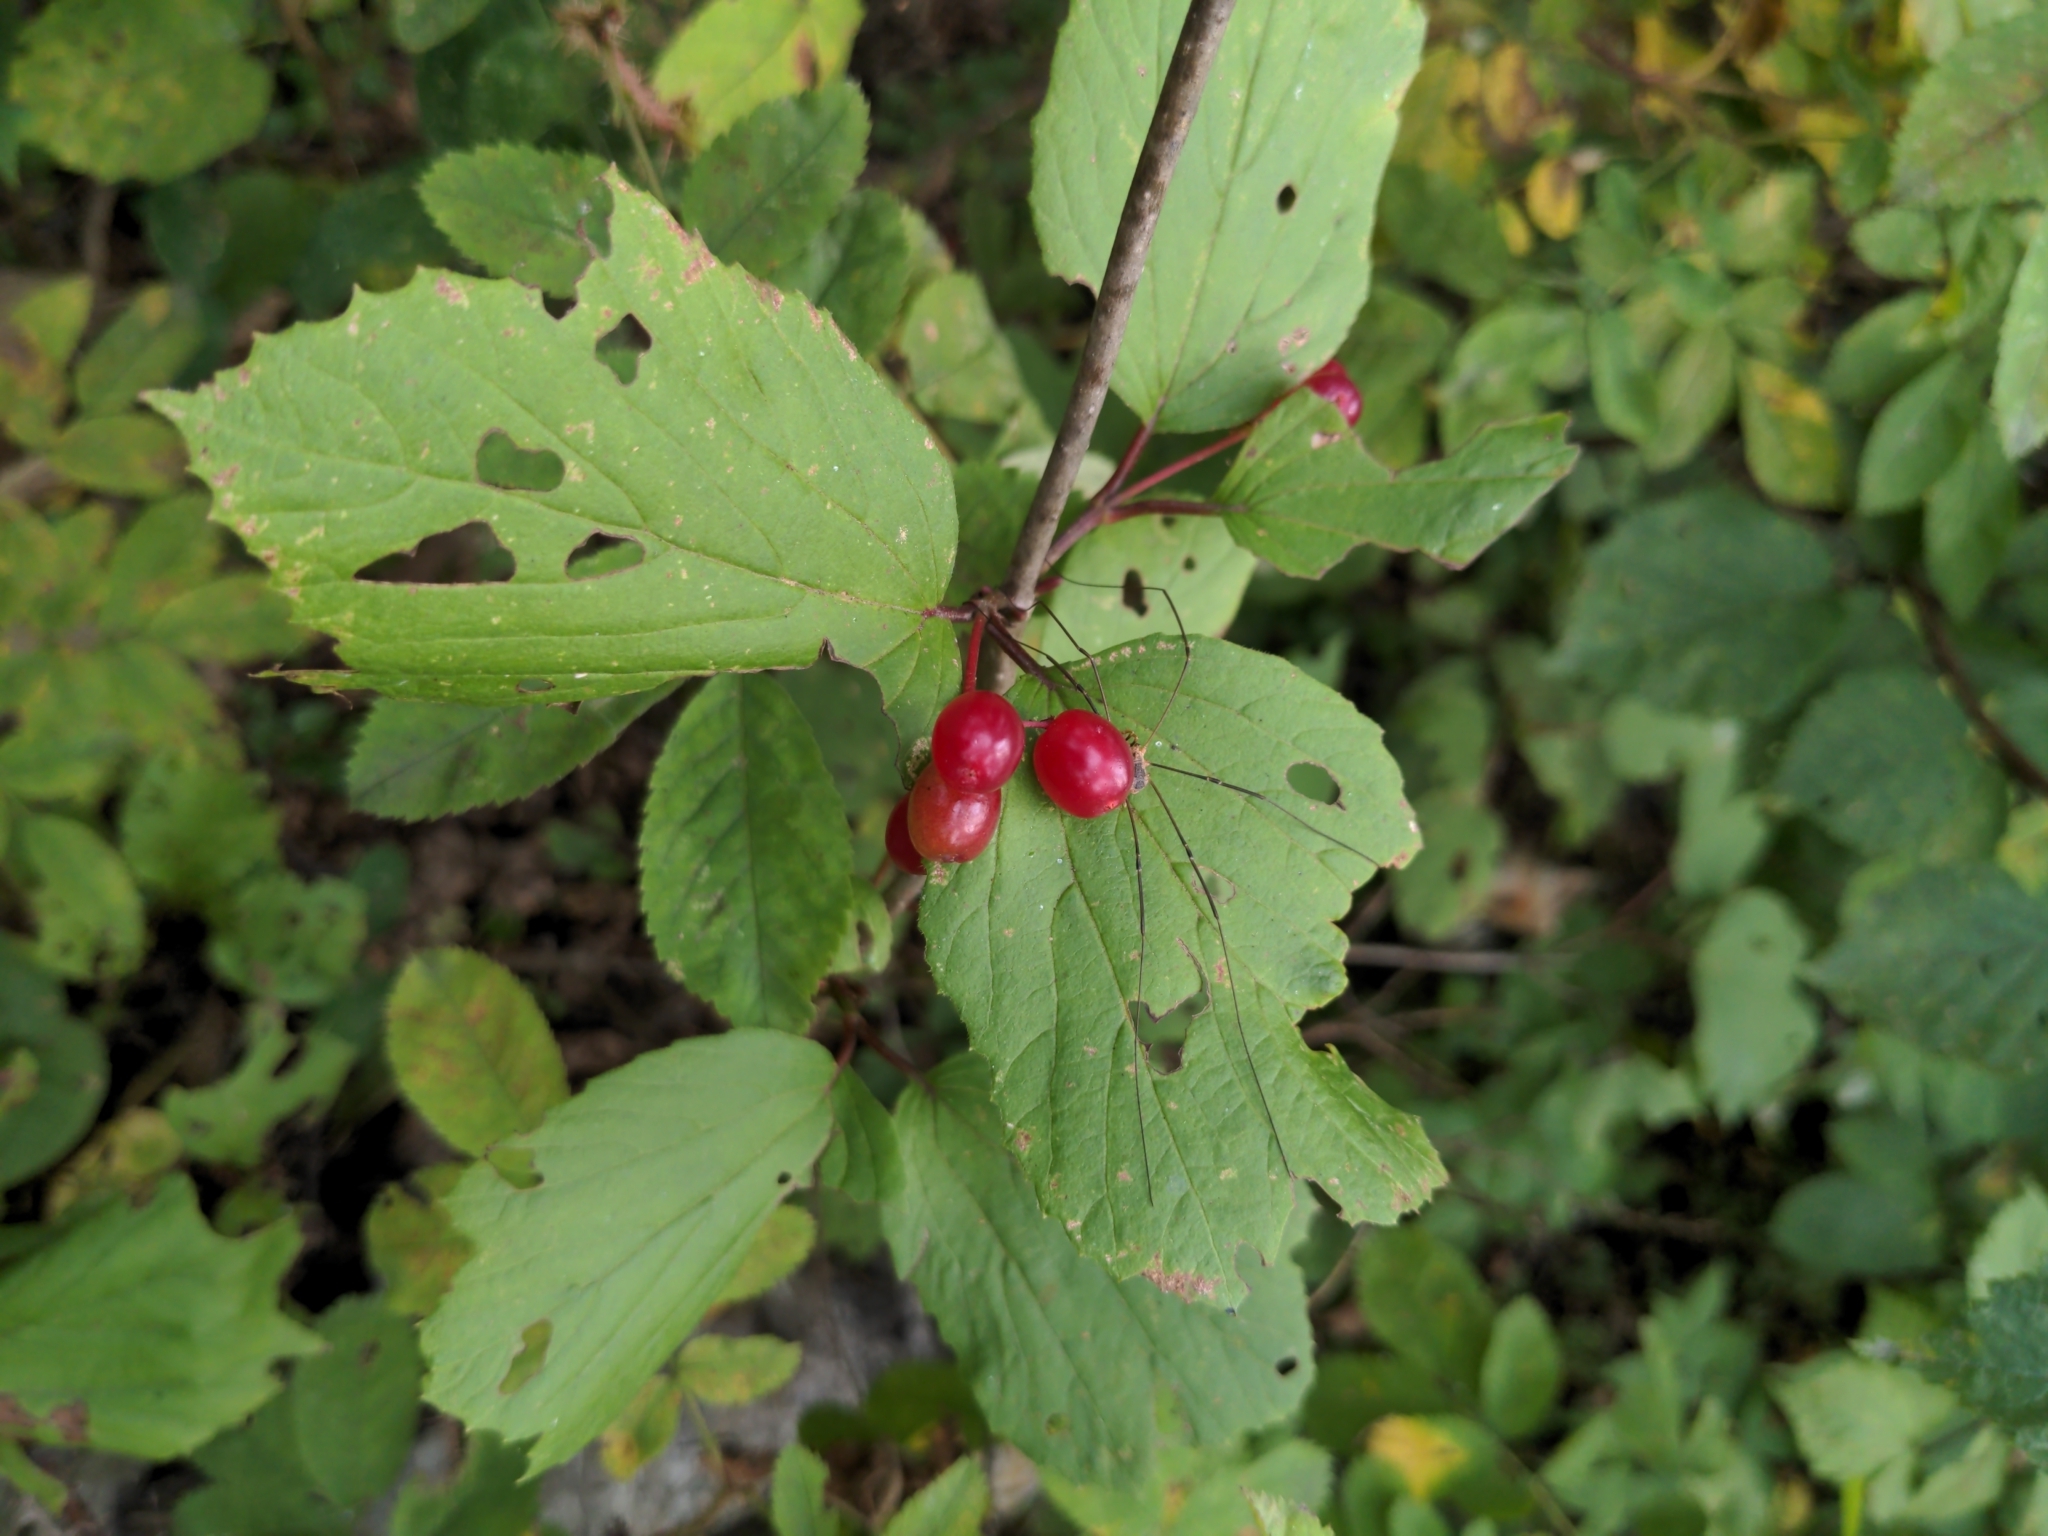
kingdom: Plantae
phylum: Tracheophyta
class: Magnoliopsida
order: Dipsacales
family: Viburnaceae
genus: Viburnum
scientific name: Viburnum edule
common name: Mooseberry
